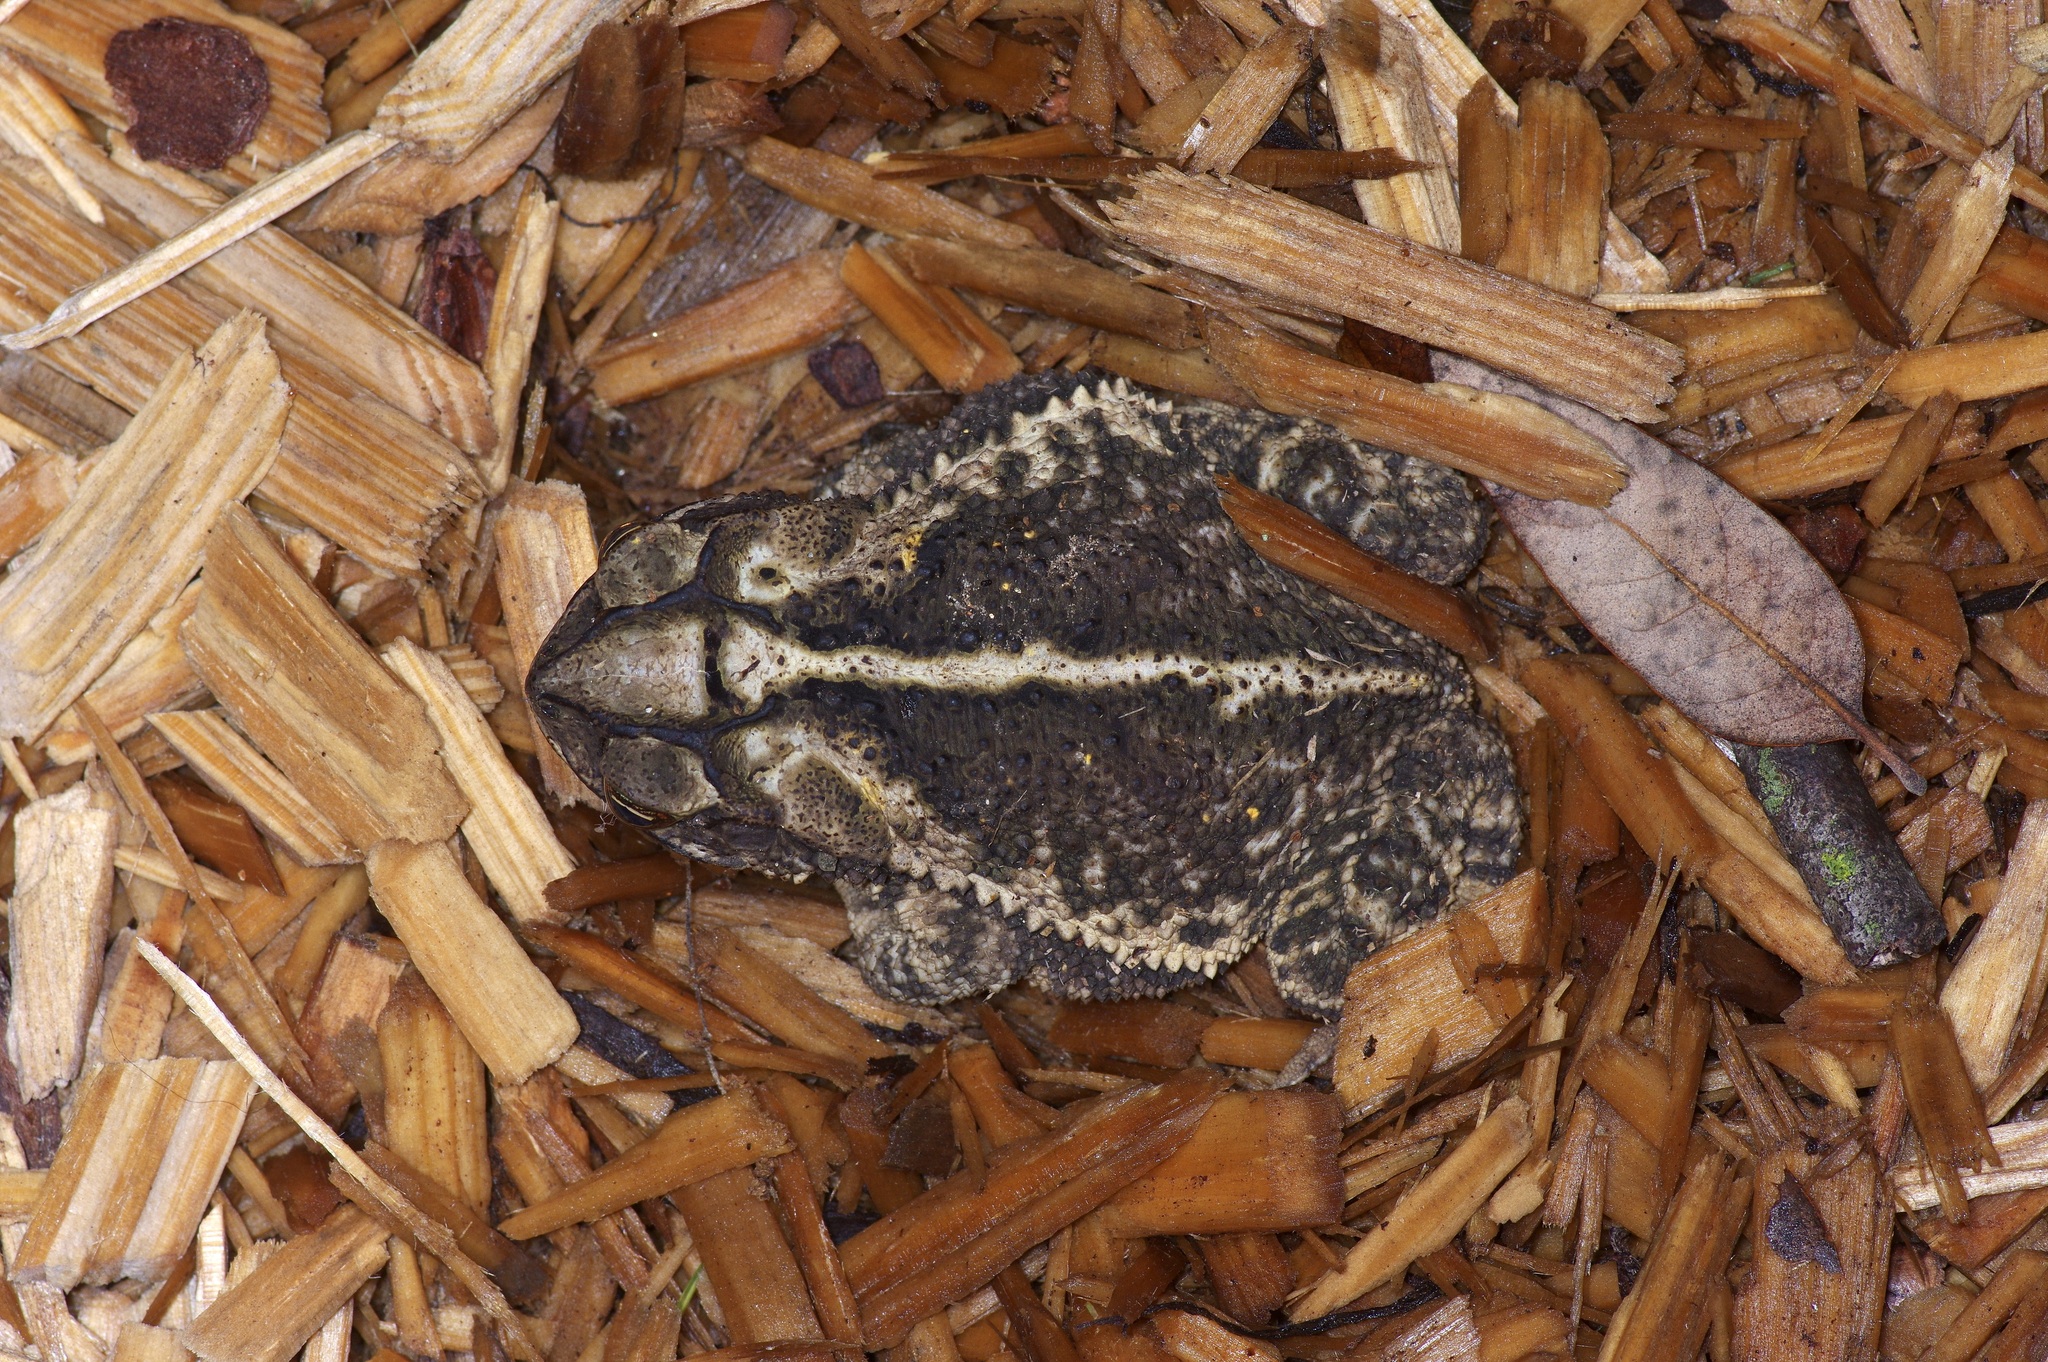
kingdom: Animalia
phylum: Chordata
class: Amphibia
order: Anura
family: Bufonidae
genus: Incilius
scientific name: Incilius nebulifer
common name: Gulf coast toad
